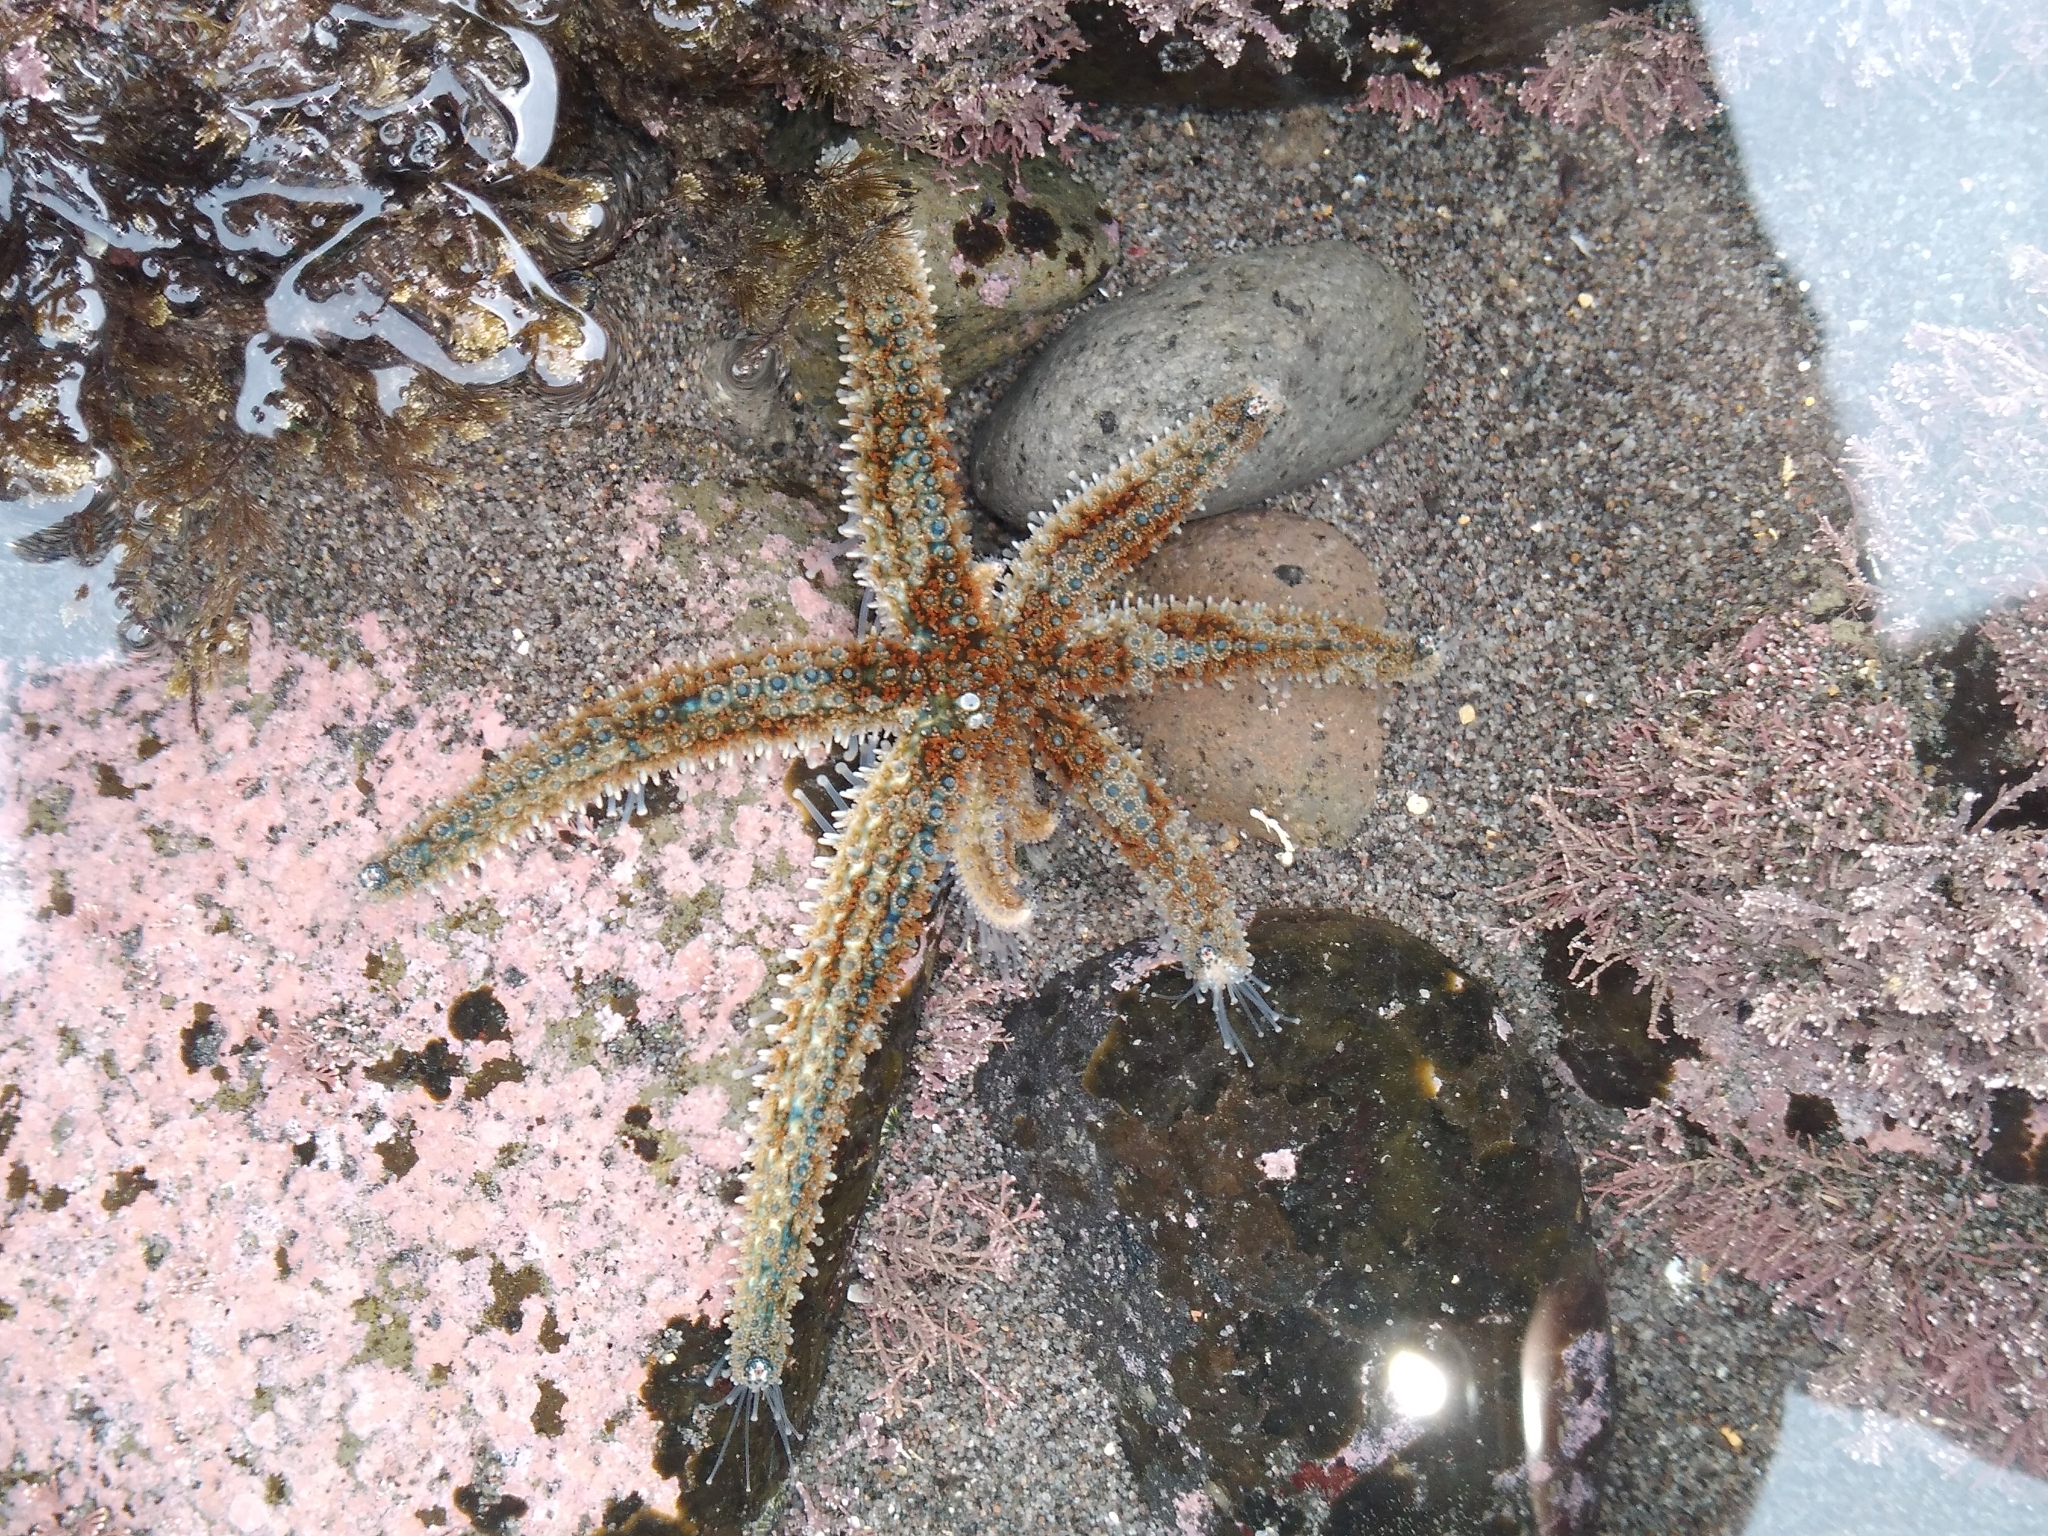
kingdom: Animalia
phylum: Echinodermata
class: Asteroidea
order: Forcipulatida
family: Asteriidae
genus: Coscinasterias
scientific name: Coscinasterias muricata
